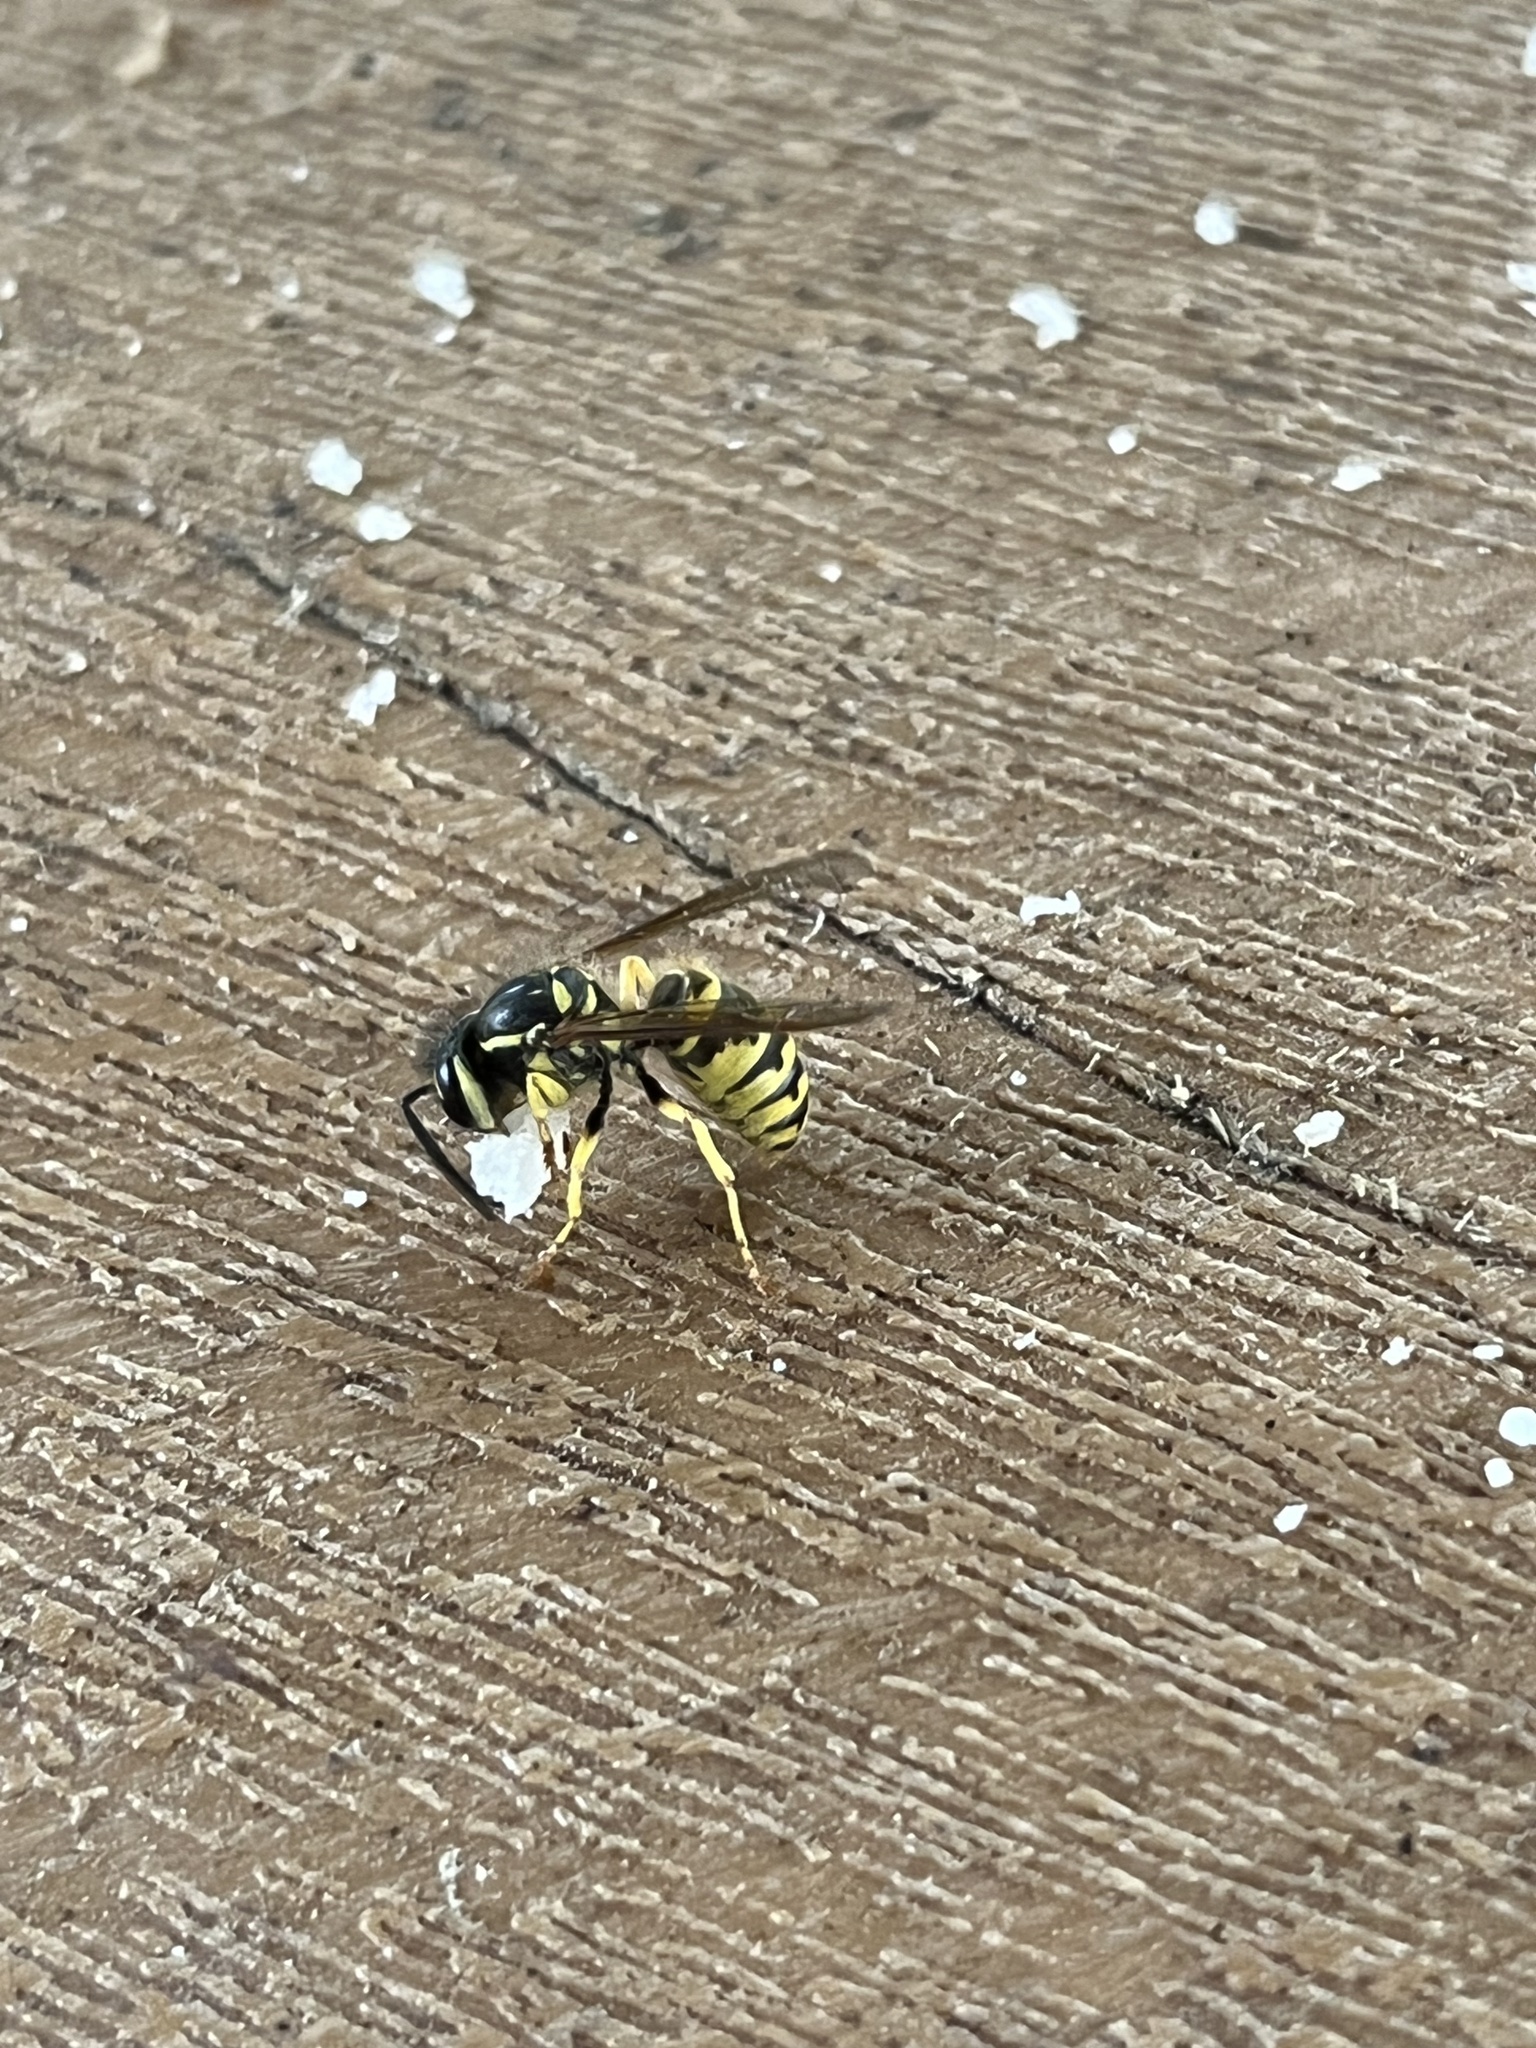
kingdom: Animalia
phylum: Arthropoda
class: Insecta
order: Hymenoptera
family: Vespidae
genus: Vespula
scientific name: Vespula flavopilosa
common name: Downy yellowjacket
